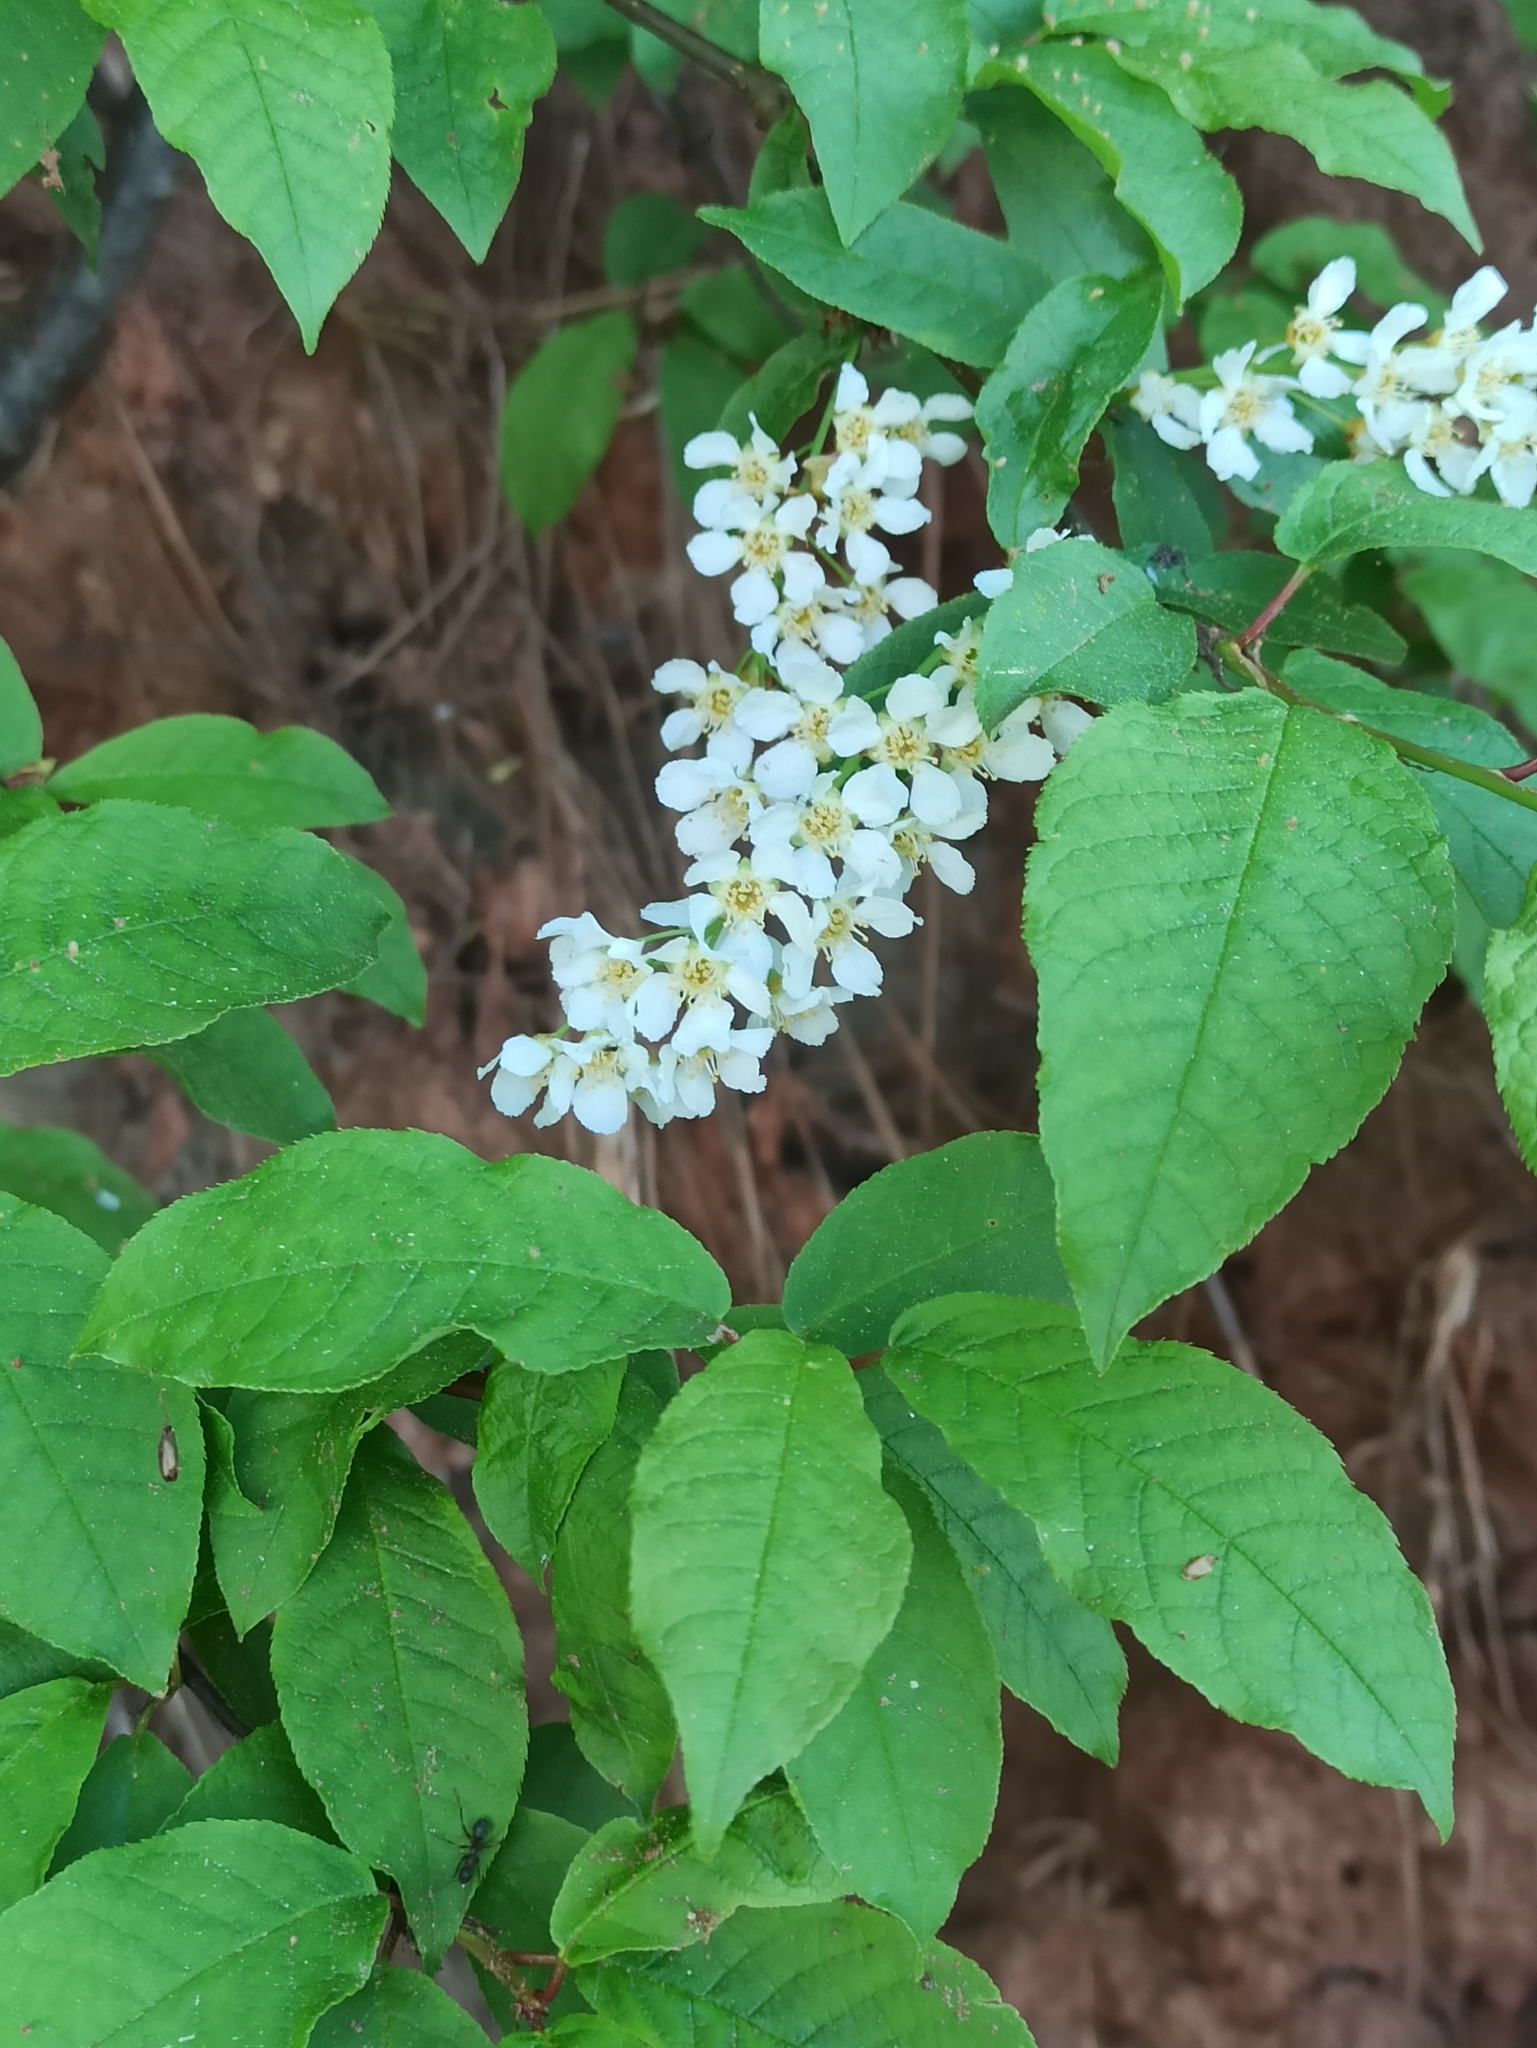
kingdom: Plantae
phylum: Tracheophyta
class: Magnoliopsida
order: Rosales
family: Rosaceae
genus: Prunus
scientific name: Prunus padus
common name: Bird cherry
